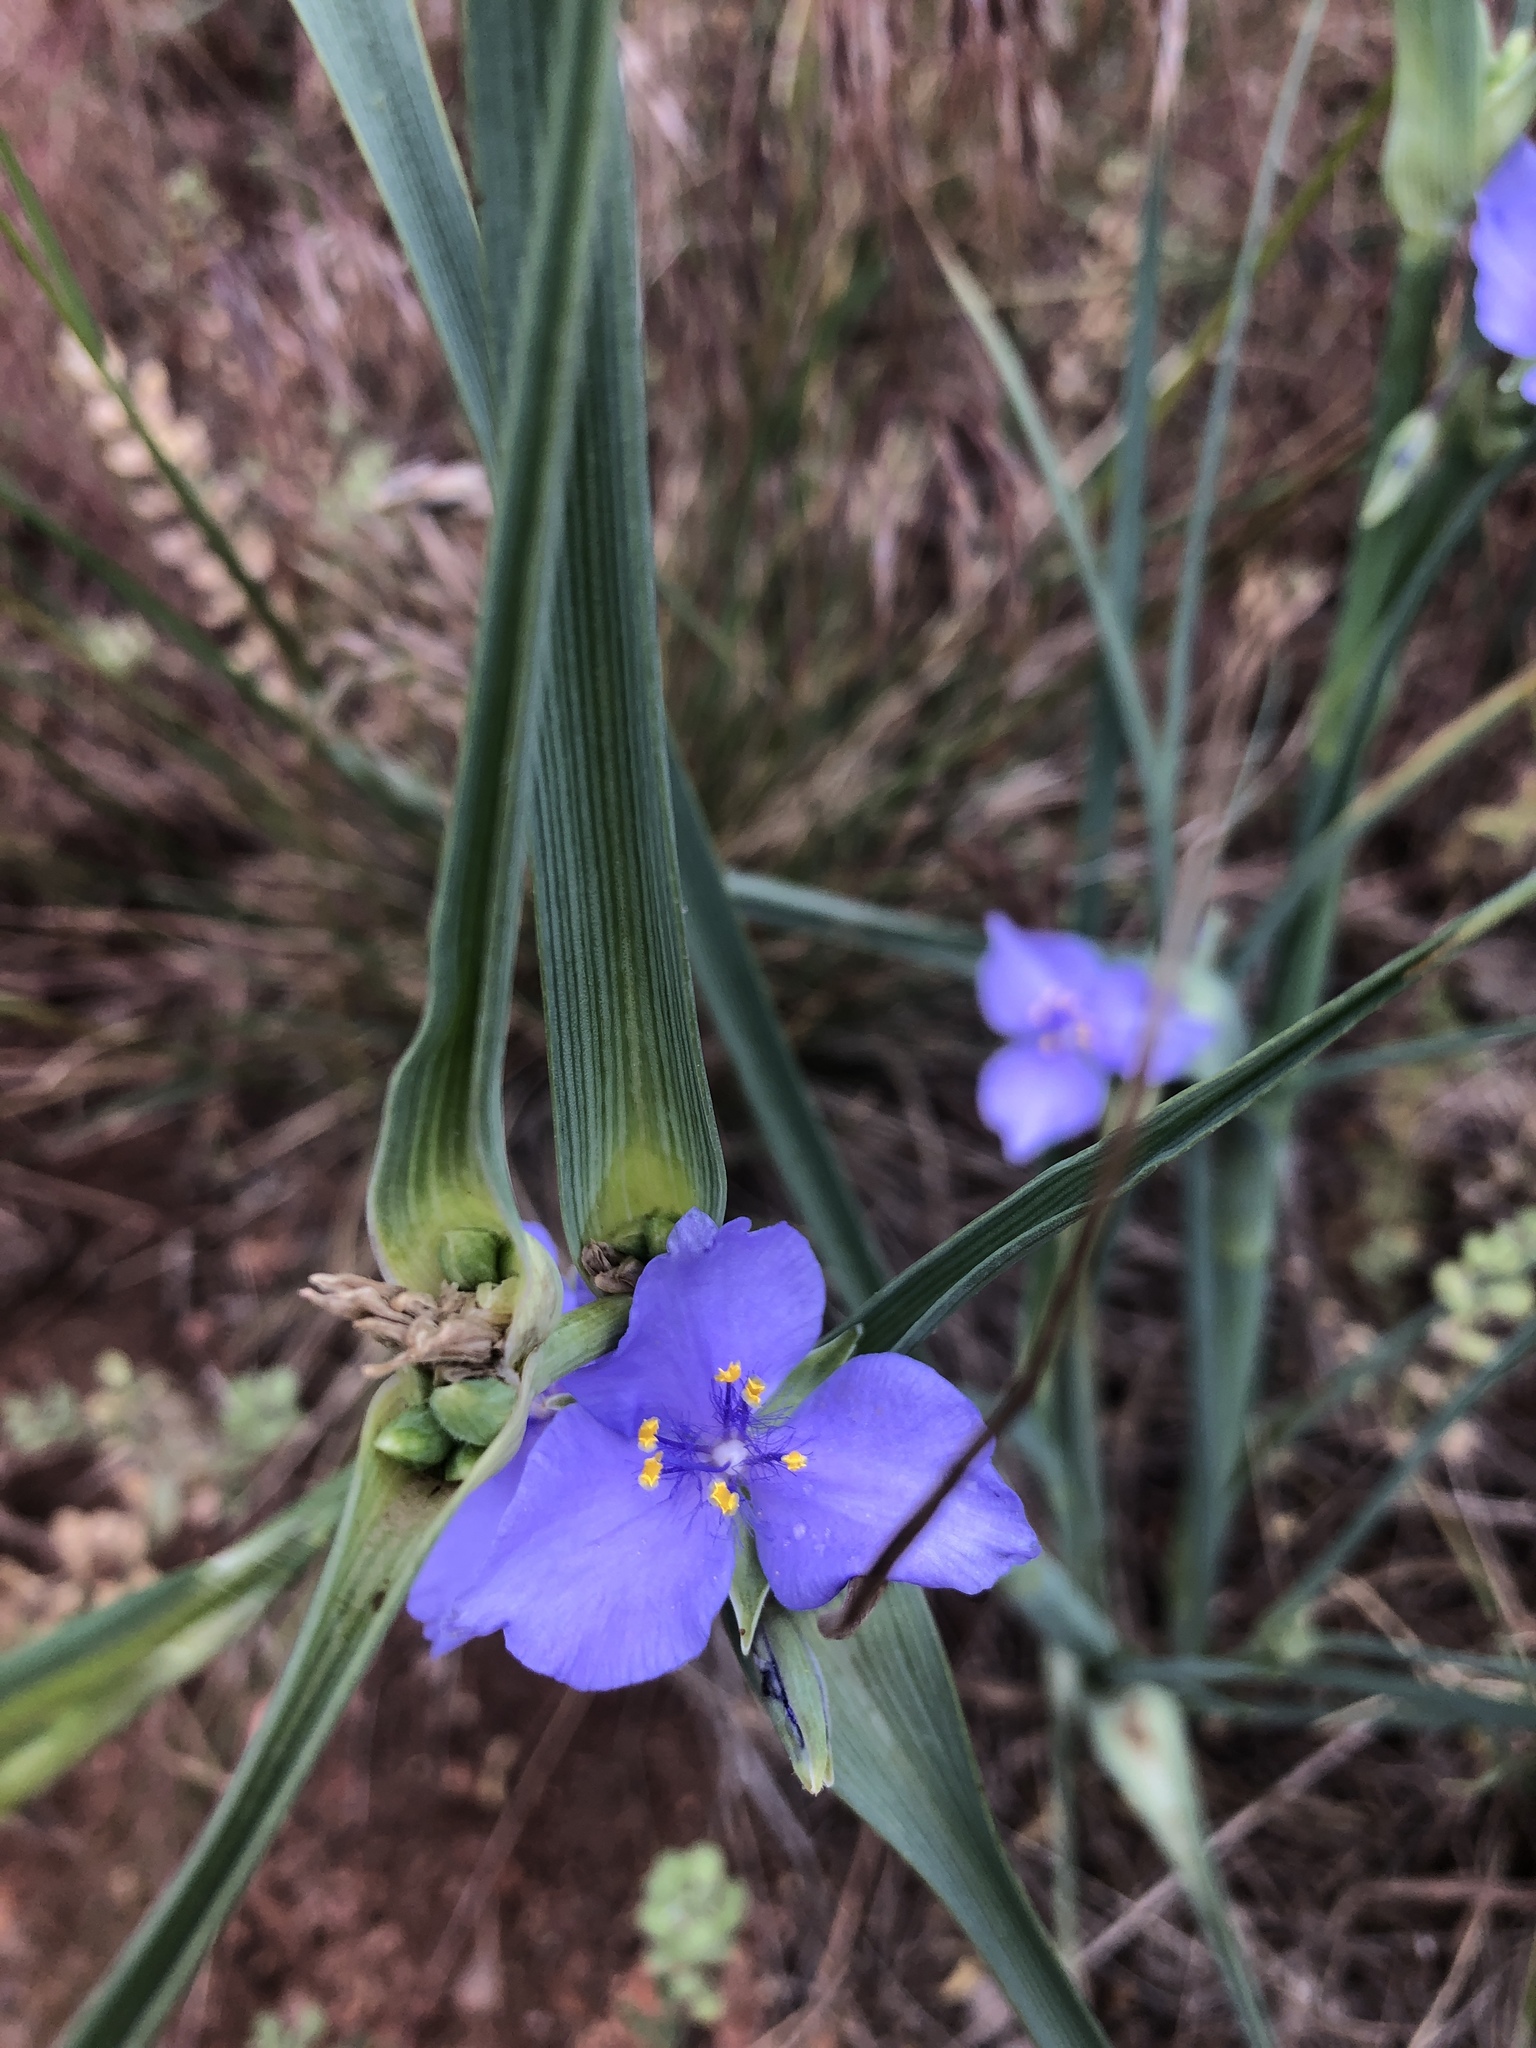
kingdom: Plantae
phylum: Tracheophyta
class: Liliopsida
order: Commelinales
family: Commelinaceae
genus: Tradescantia
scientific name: Tradescantia occidentalis
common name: Prairie spiderwort
